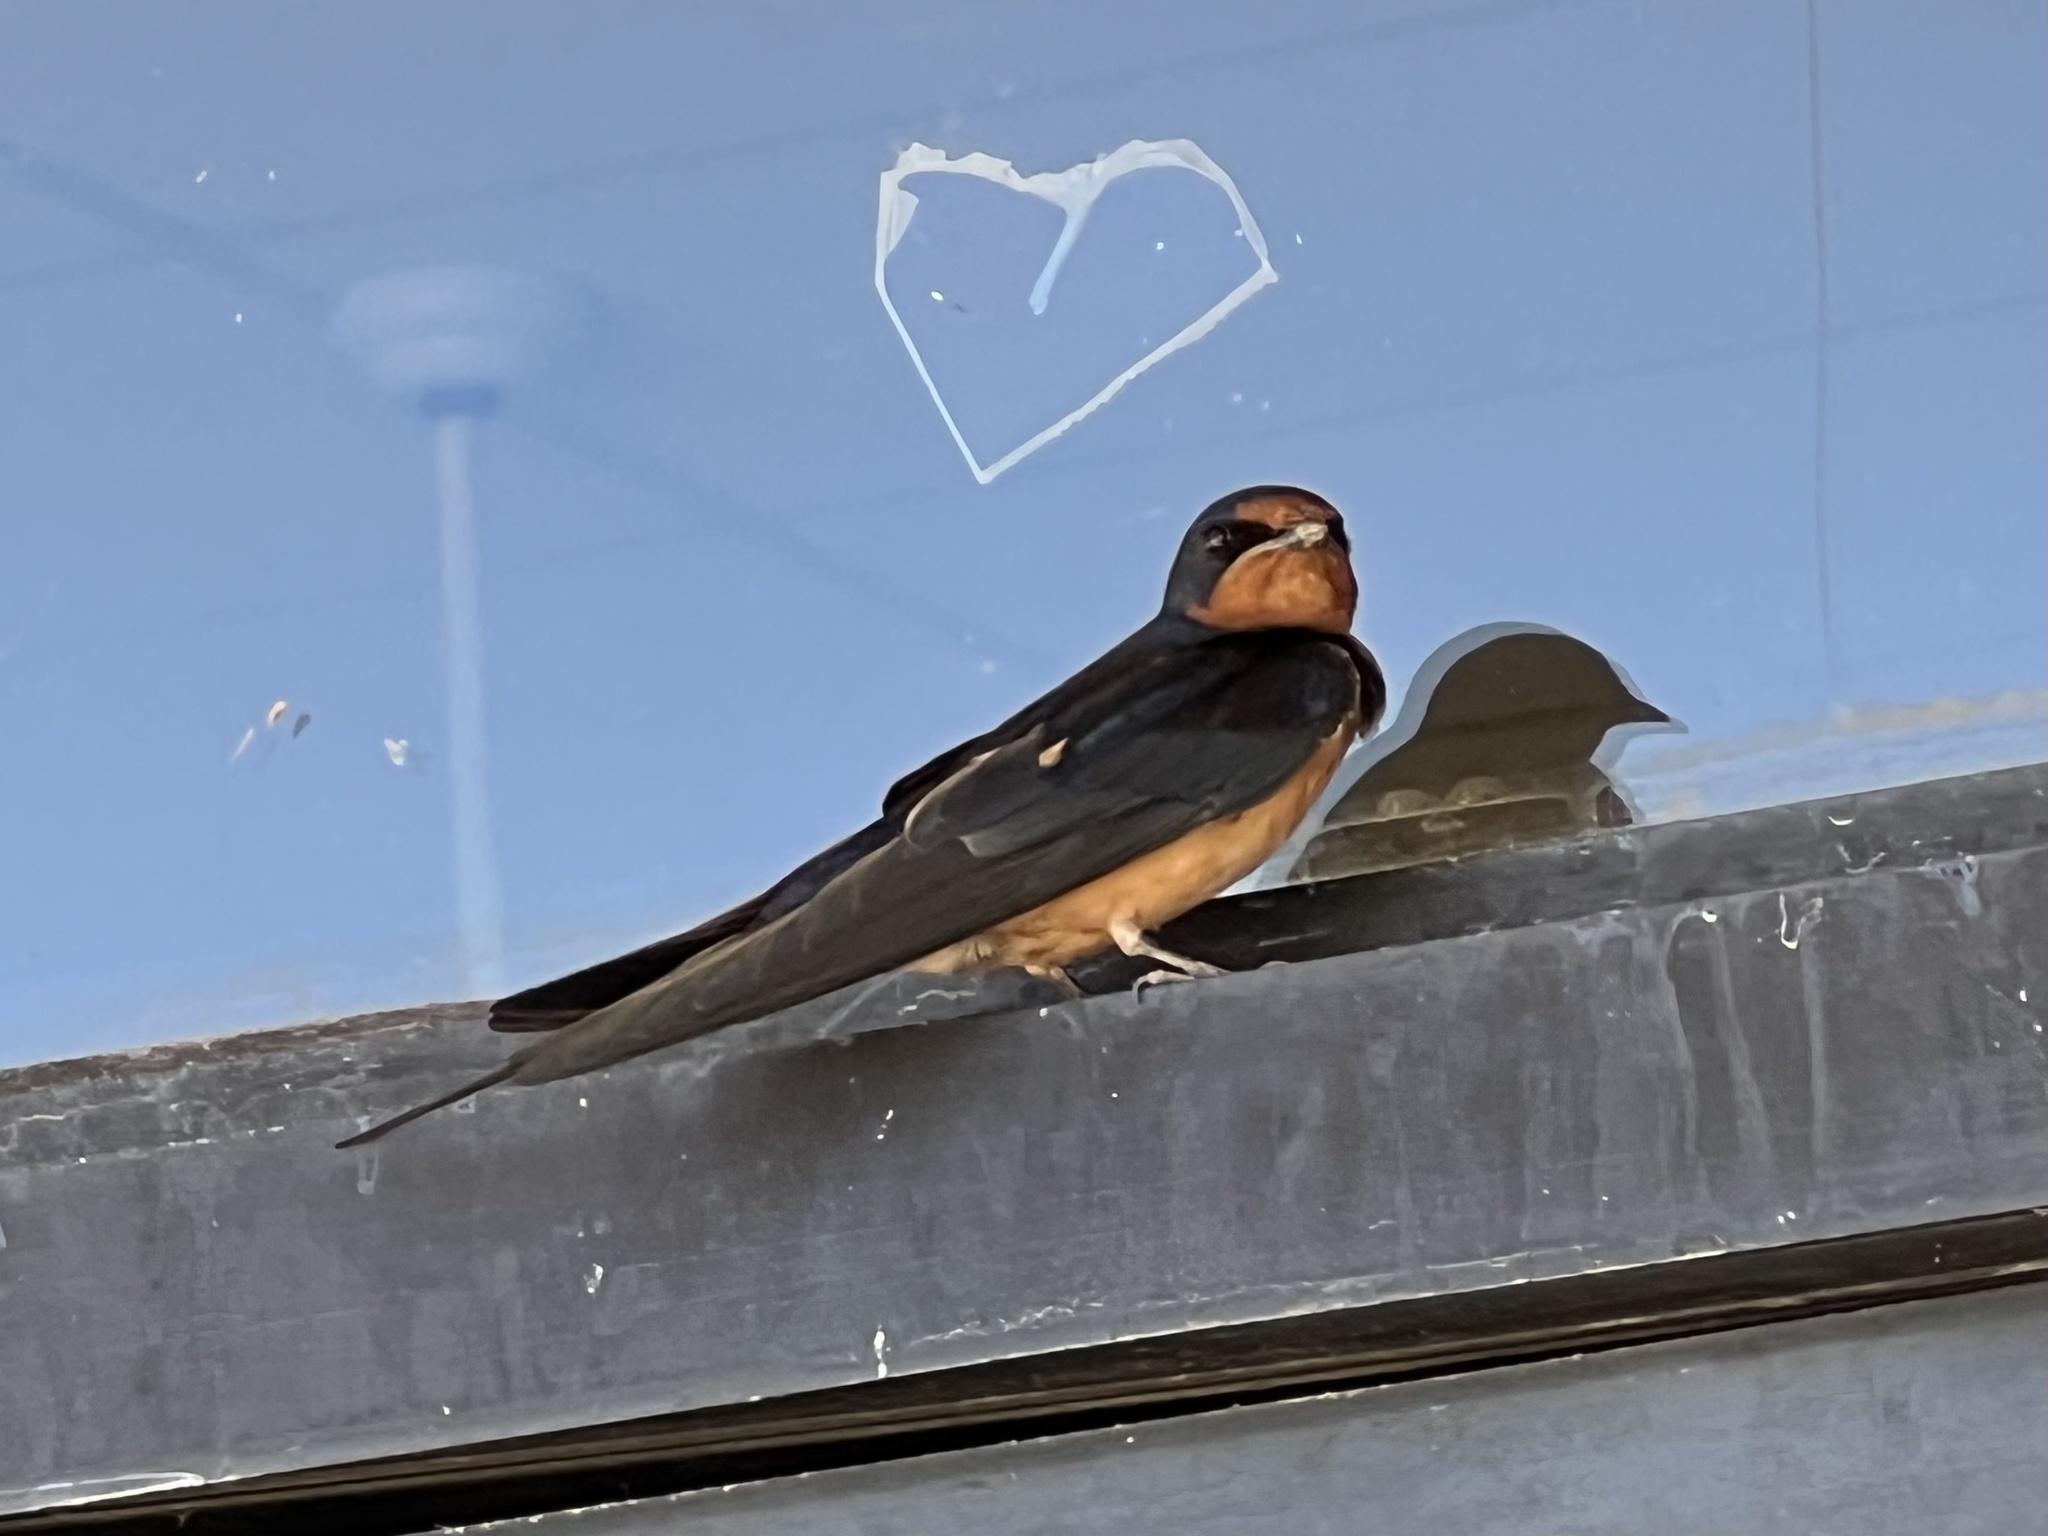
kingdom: Animalia
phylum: Chordata
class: Aves
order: Passeriformes
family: Hirundinidae
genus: Hirundo
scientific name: Hirundo rustica
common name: Barn swallow
